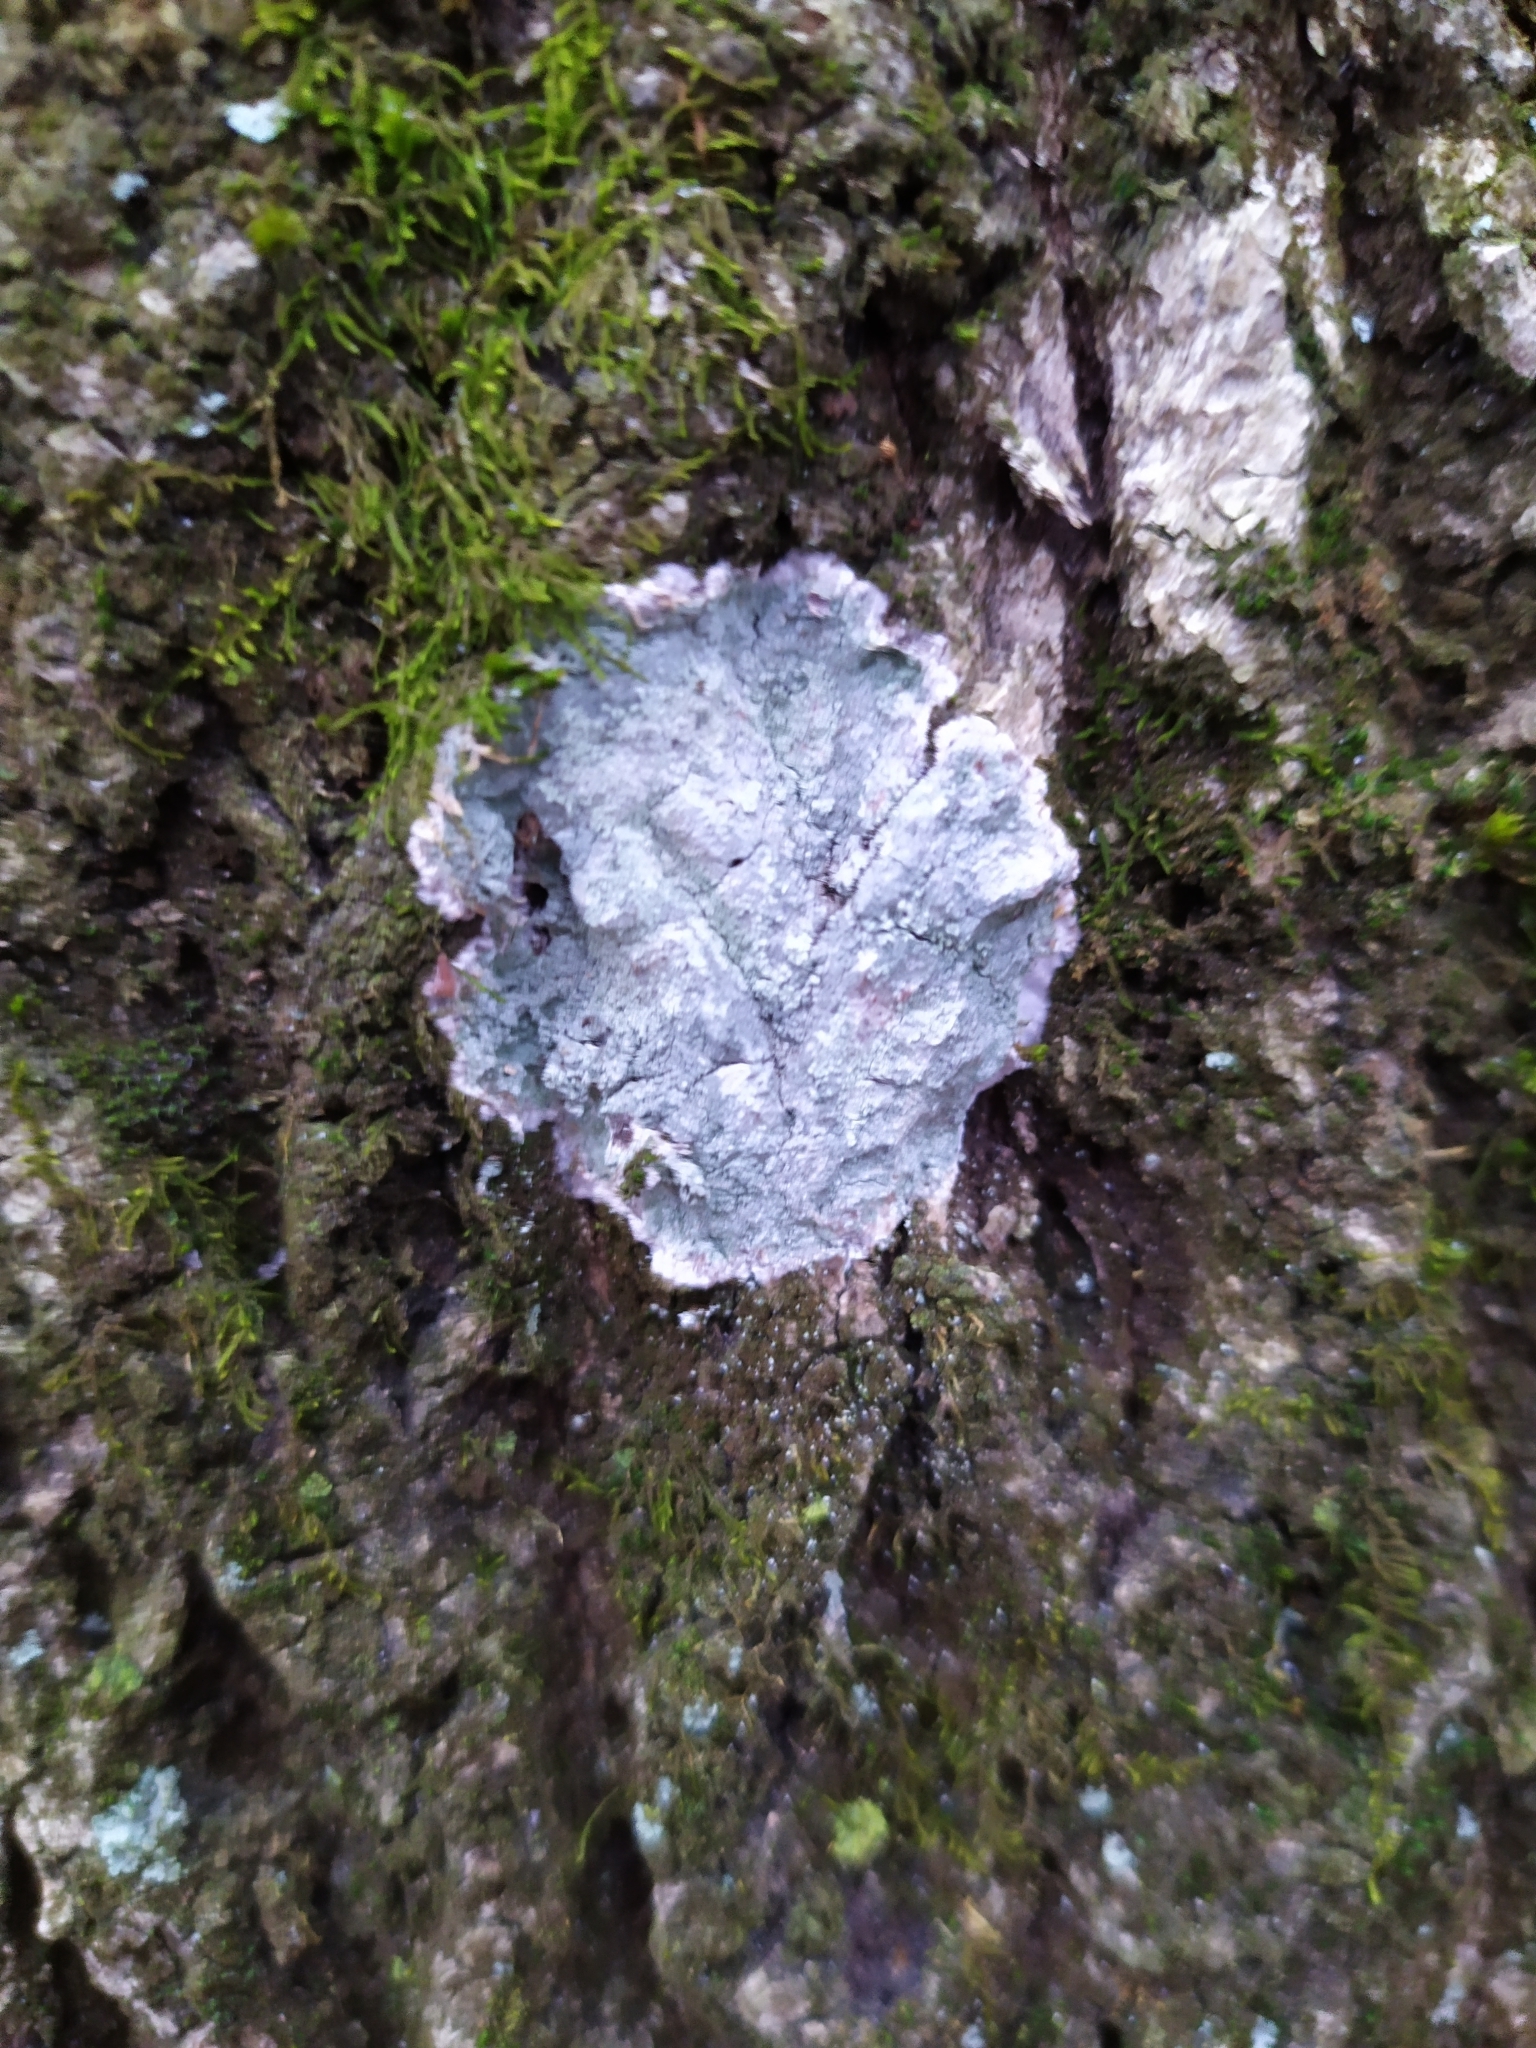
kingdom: Fungi
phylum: Ascomycota
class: Lecanoromycetes
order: Ostropales
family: Phlyctidaceae
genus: Phlyctis
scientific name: Phlyctis argena
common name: Whitewash lichen
